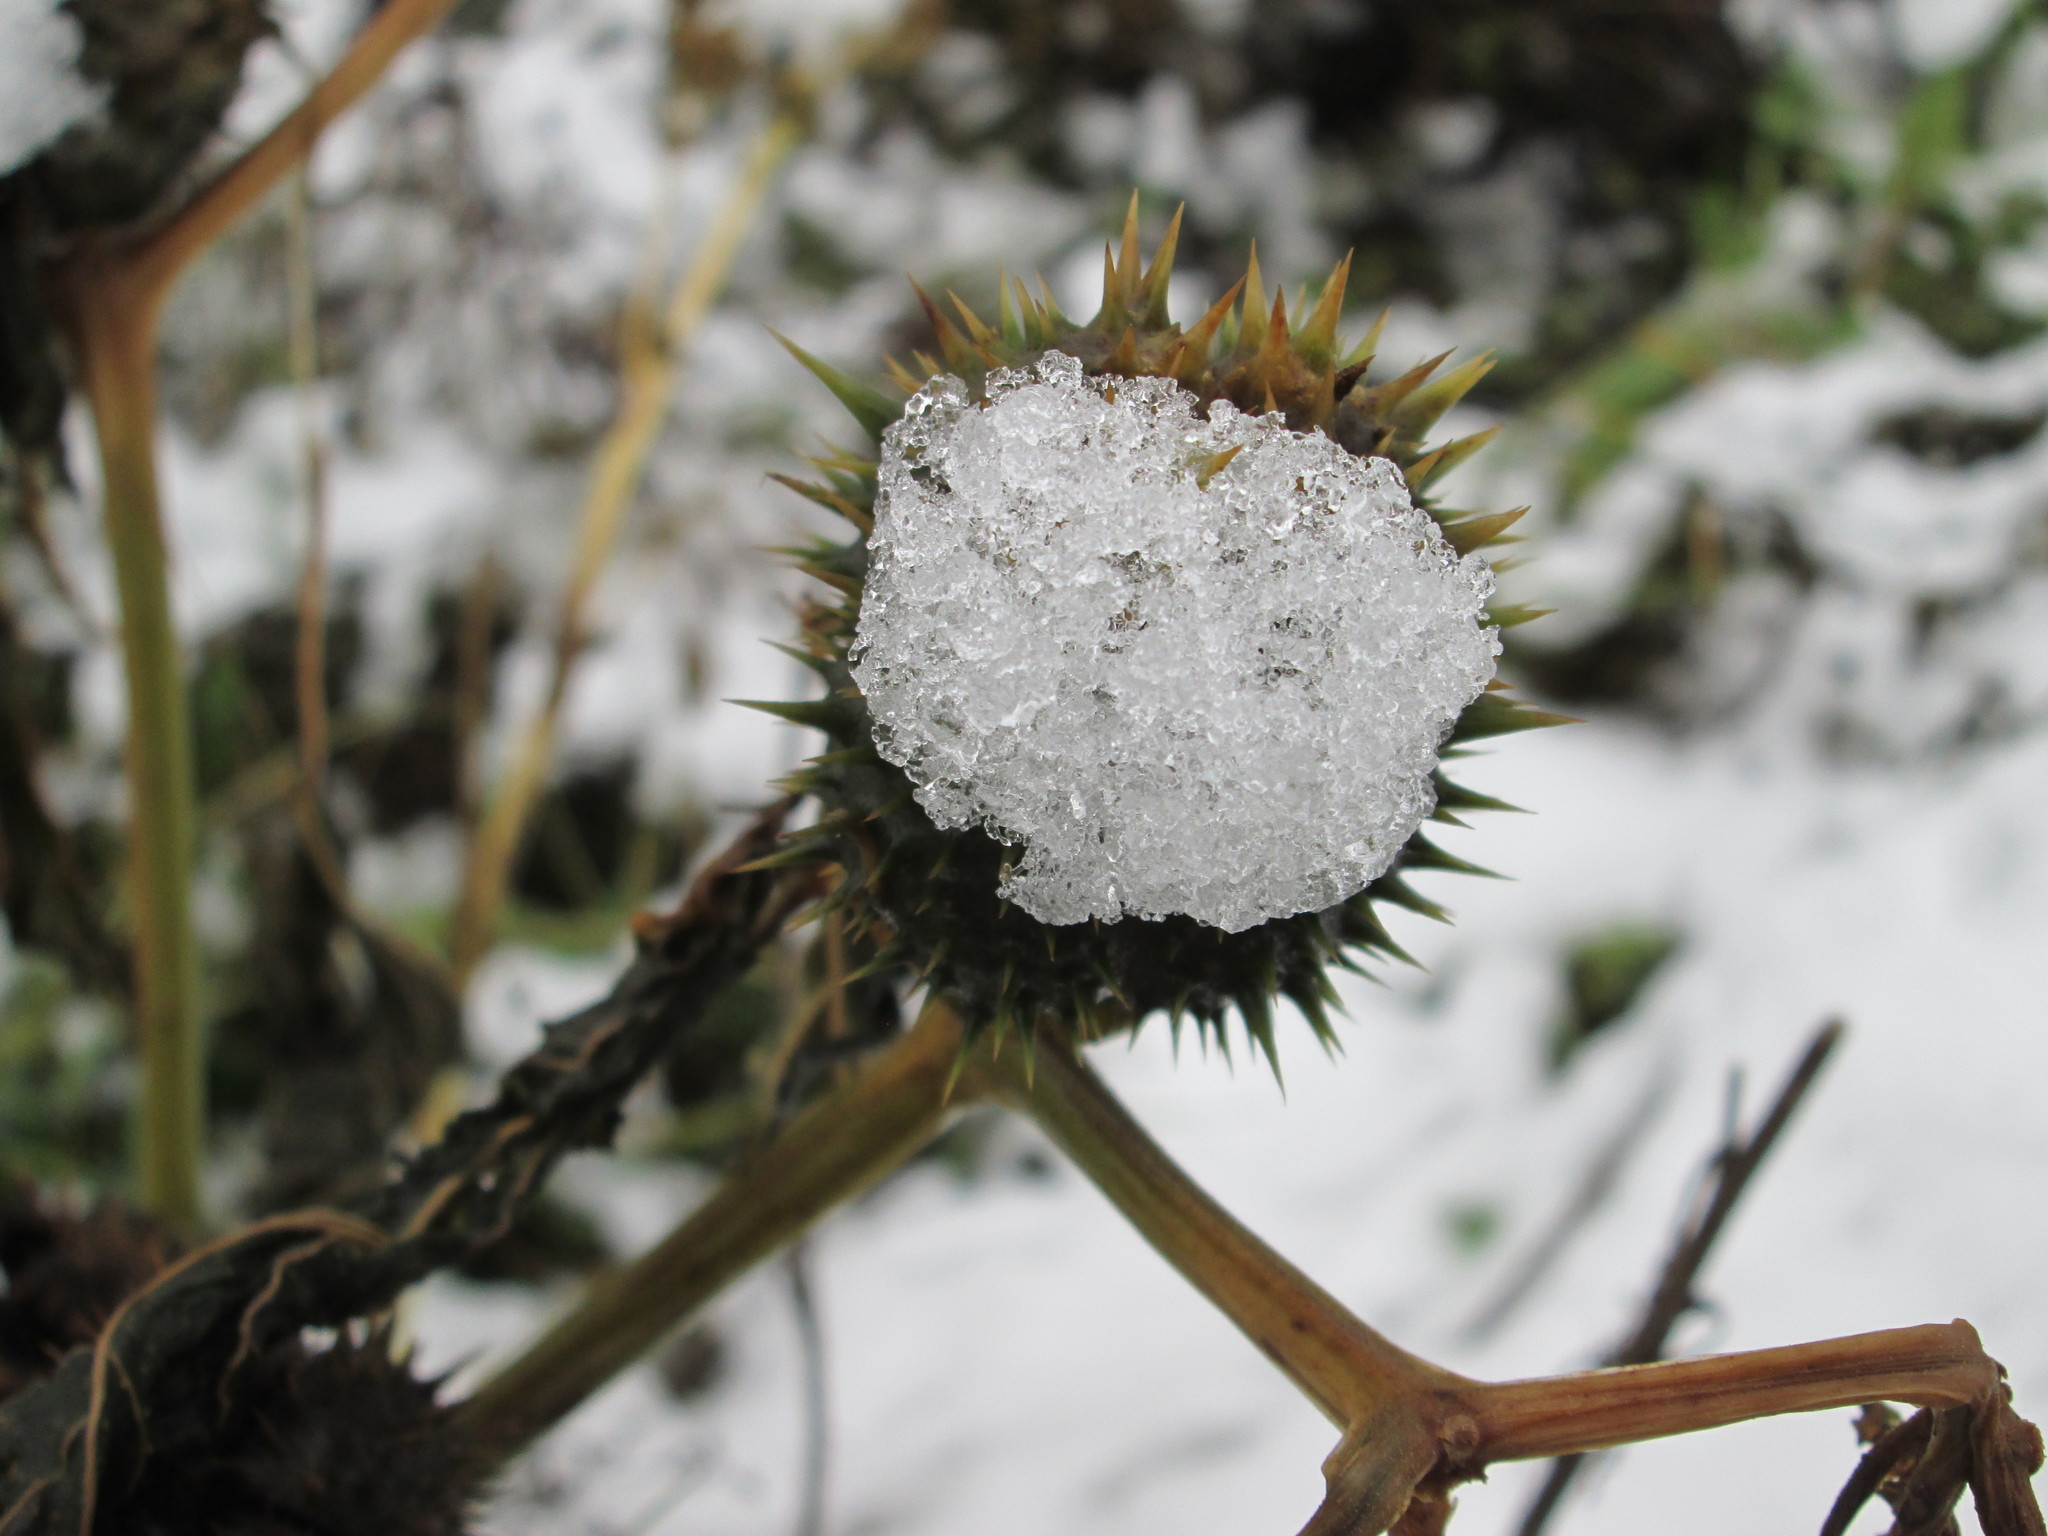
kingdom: Plantae
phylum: Tracheophyta
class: Magnoliopsida
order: Solanales
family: Solanaceae
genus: Datura
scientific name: Datura stramonium
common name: Thorn-apple
